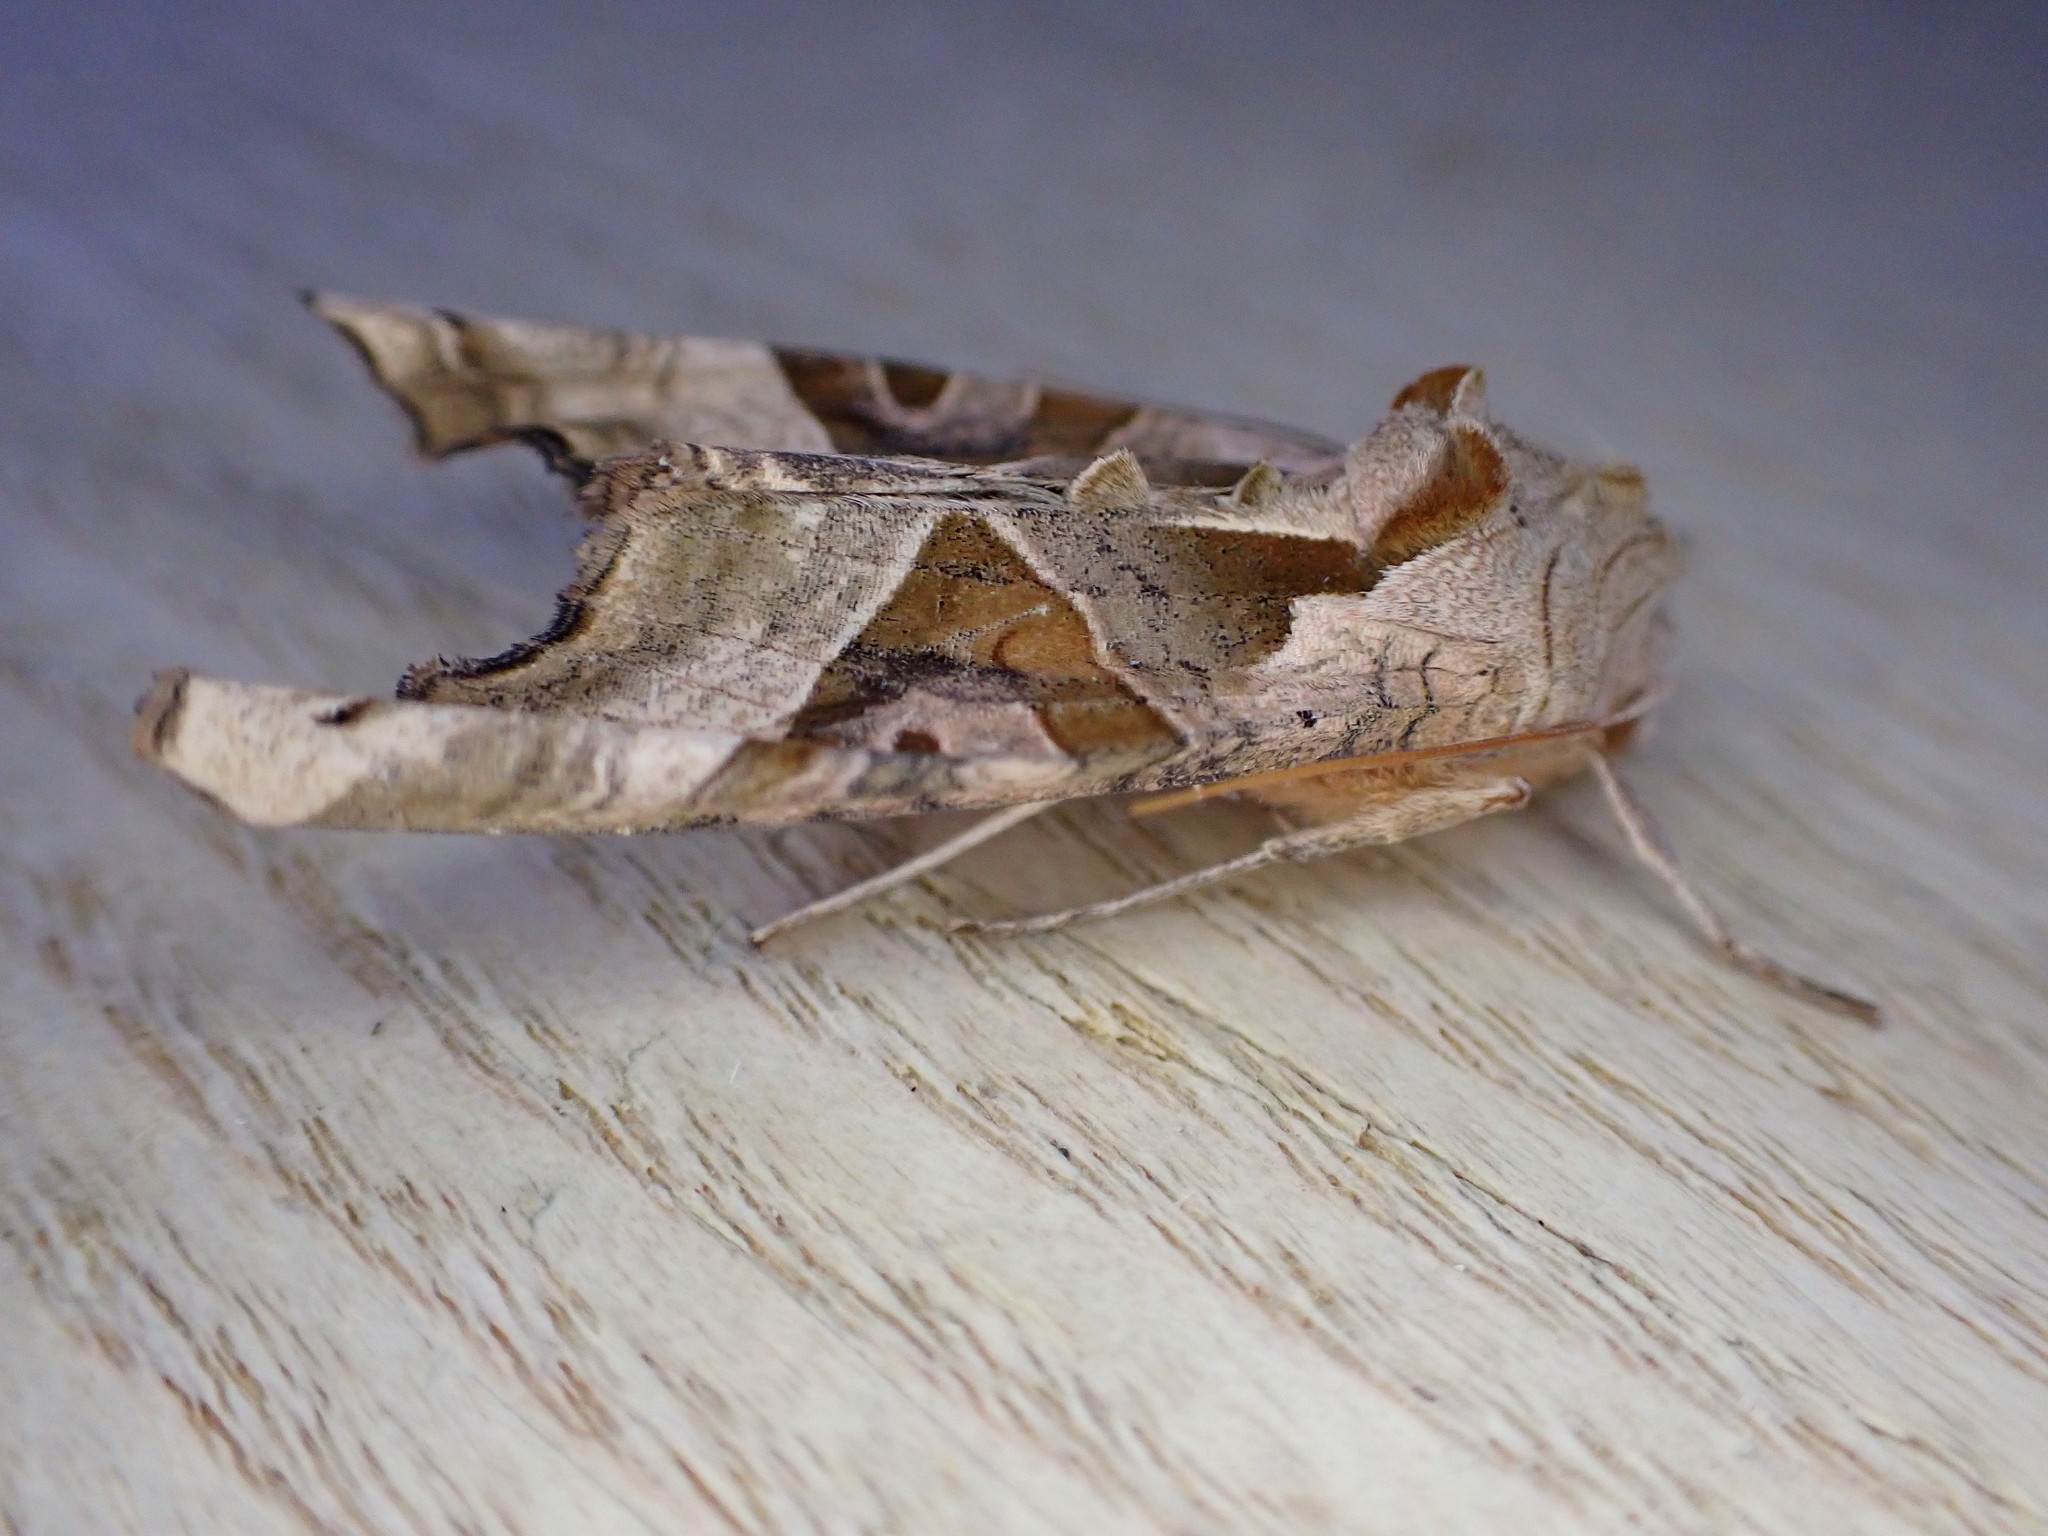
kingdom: Animalia
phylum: Arthropoda
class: Insecta
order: Lepidoptera
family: Noctuidae
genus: Phlogophora
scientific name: Phlogophora meticulosa
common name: Angle shades
